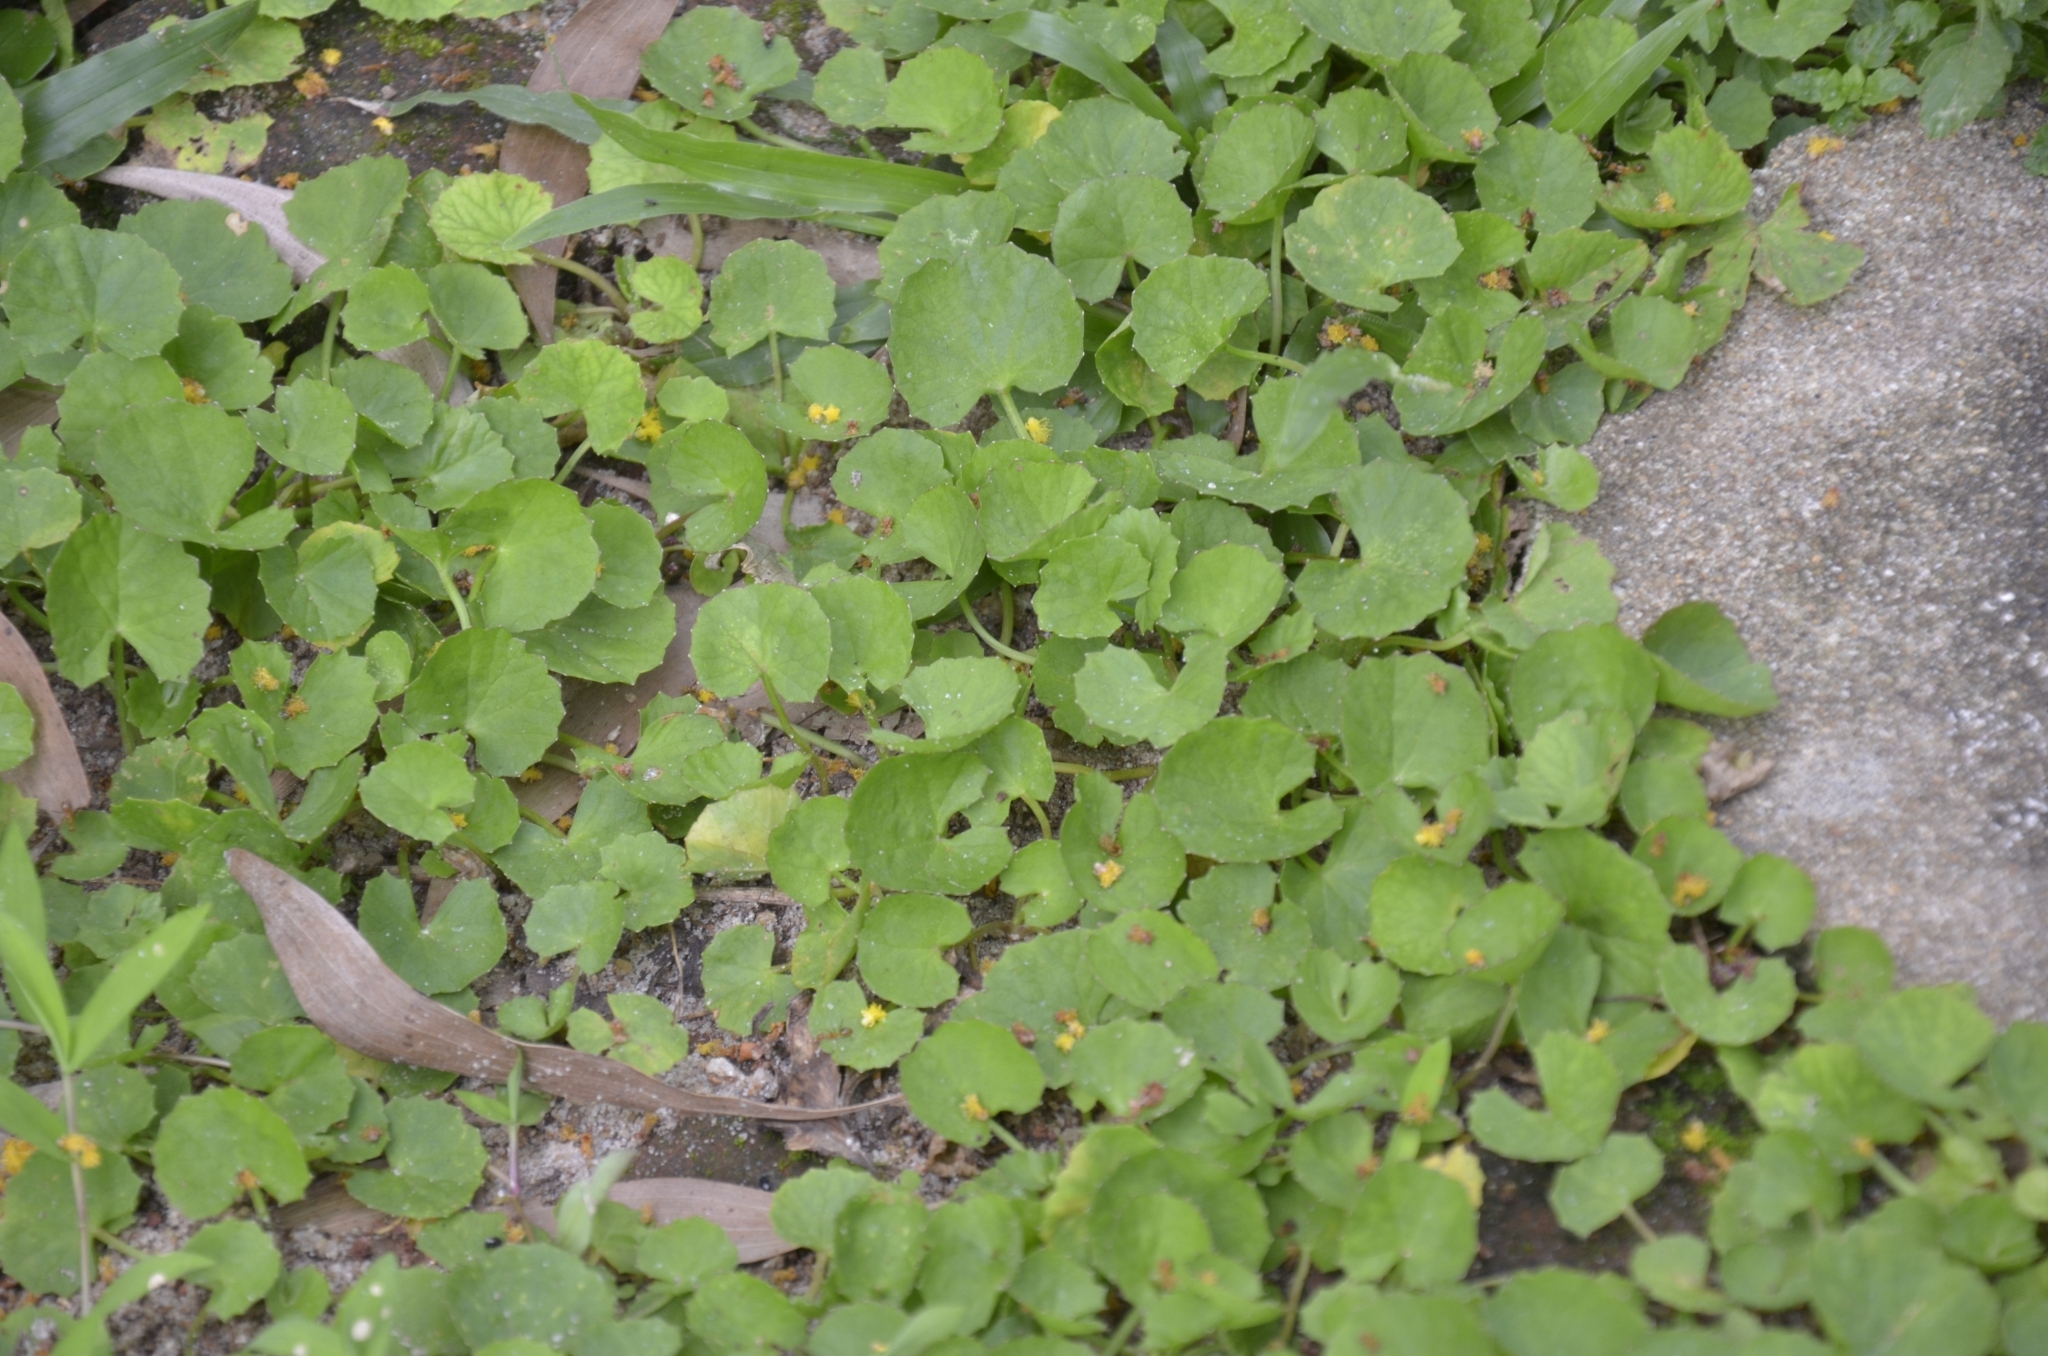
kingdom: Plantae
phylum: Tracheophyta
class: Magnoliopsida
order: Apiales
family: Apiaceae
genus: Centella
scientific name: Centella asiatica
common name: Spadeleaf
